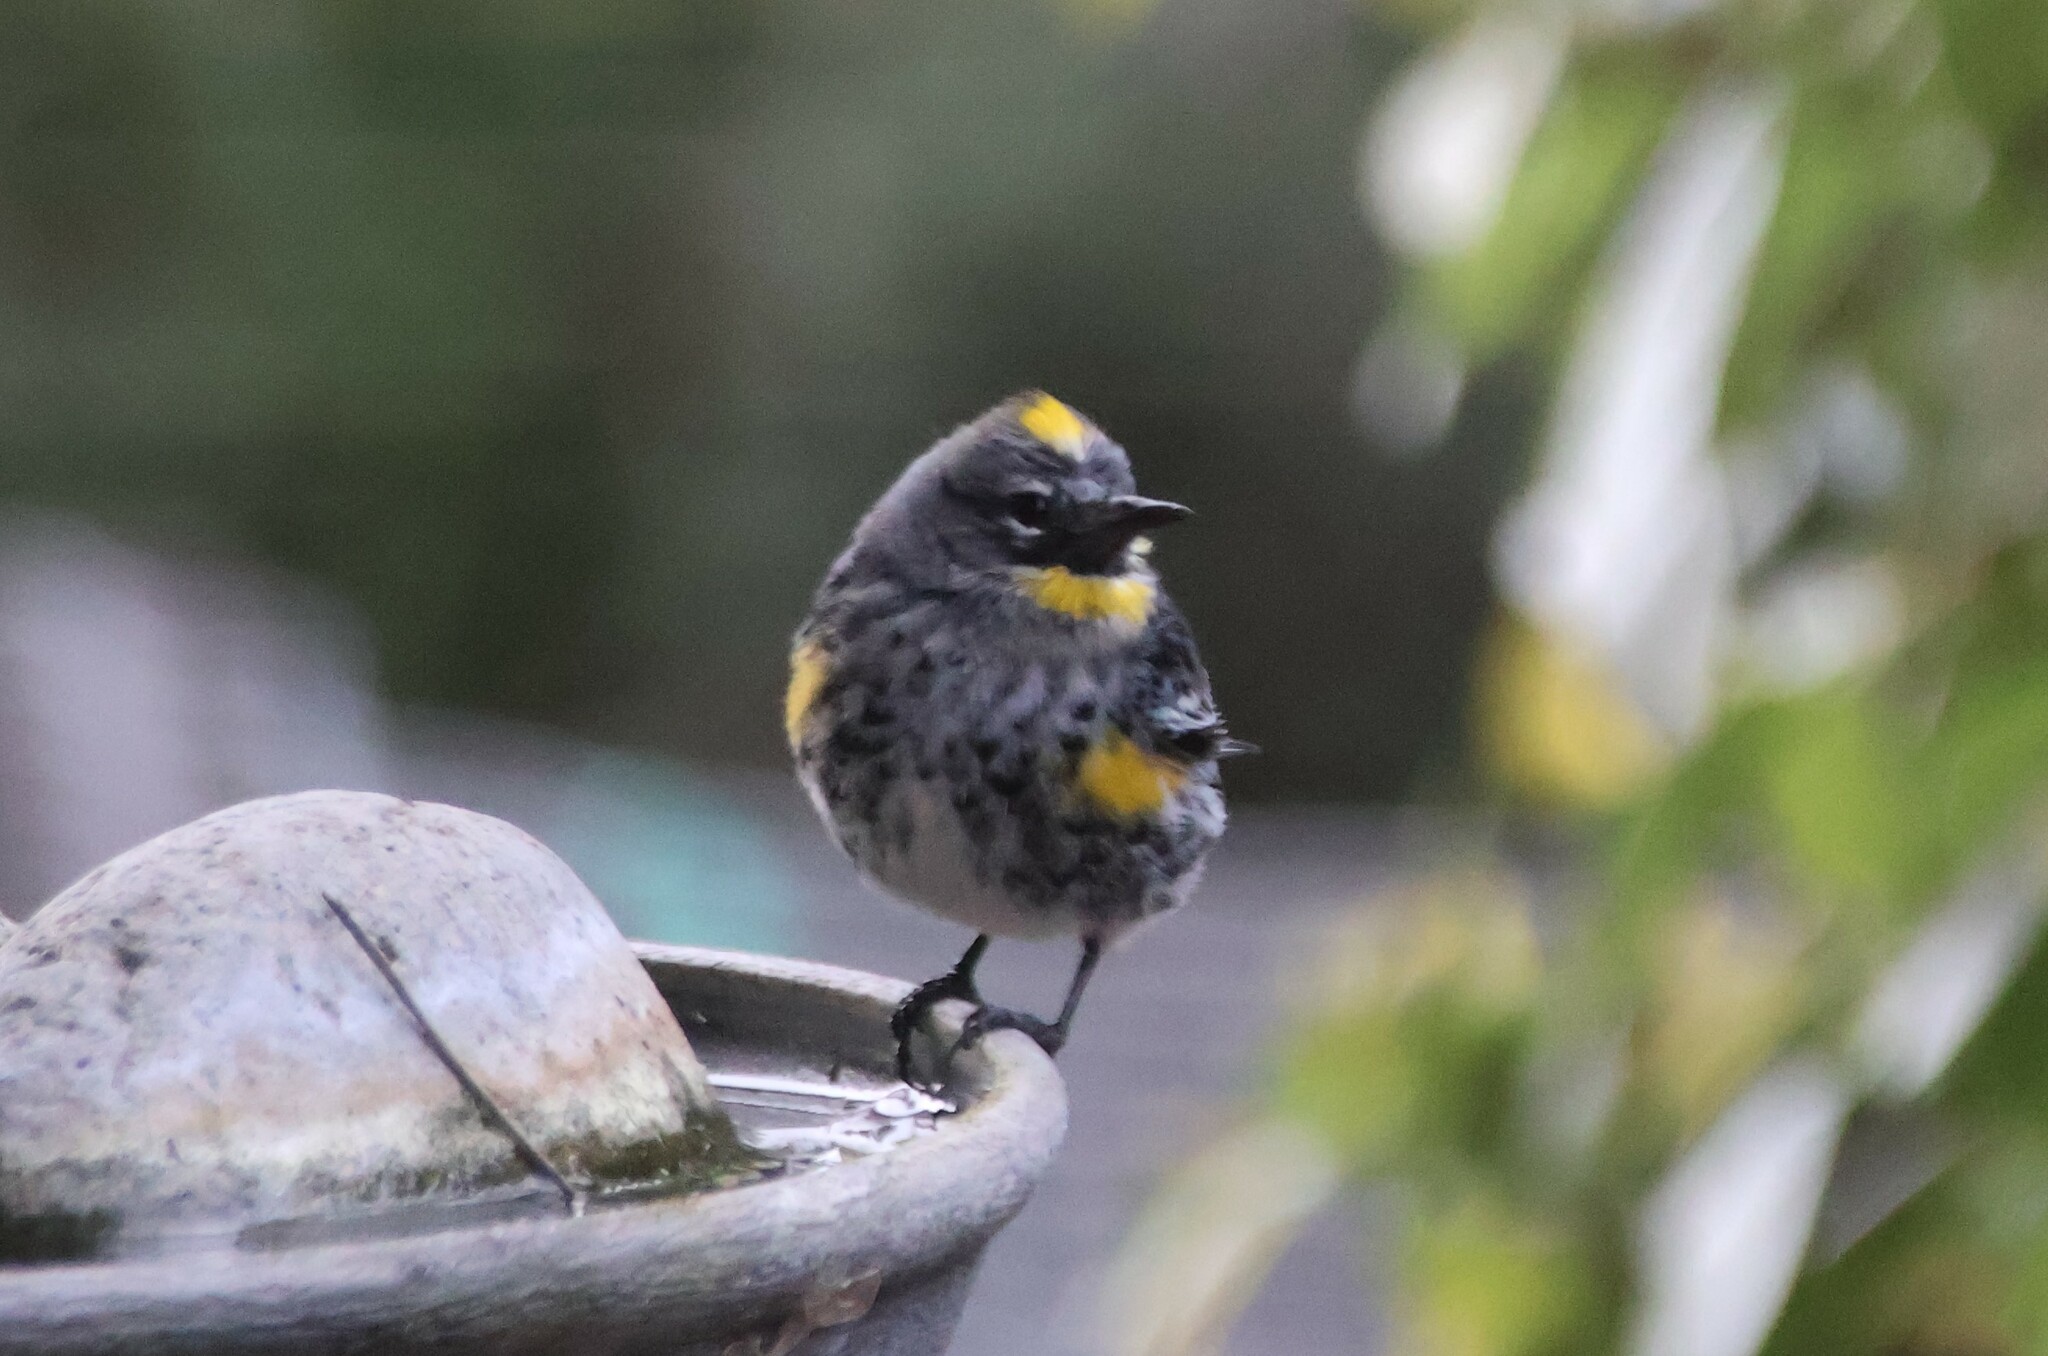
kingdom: Animalia
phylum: Chordata
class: Aves
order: Passeriformes
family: Parulidae
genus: Setophaga
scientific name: Setophaga auduboni
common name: Audubon's warbler
